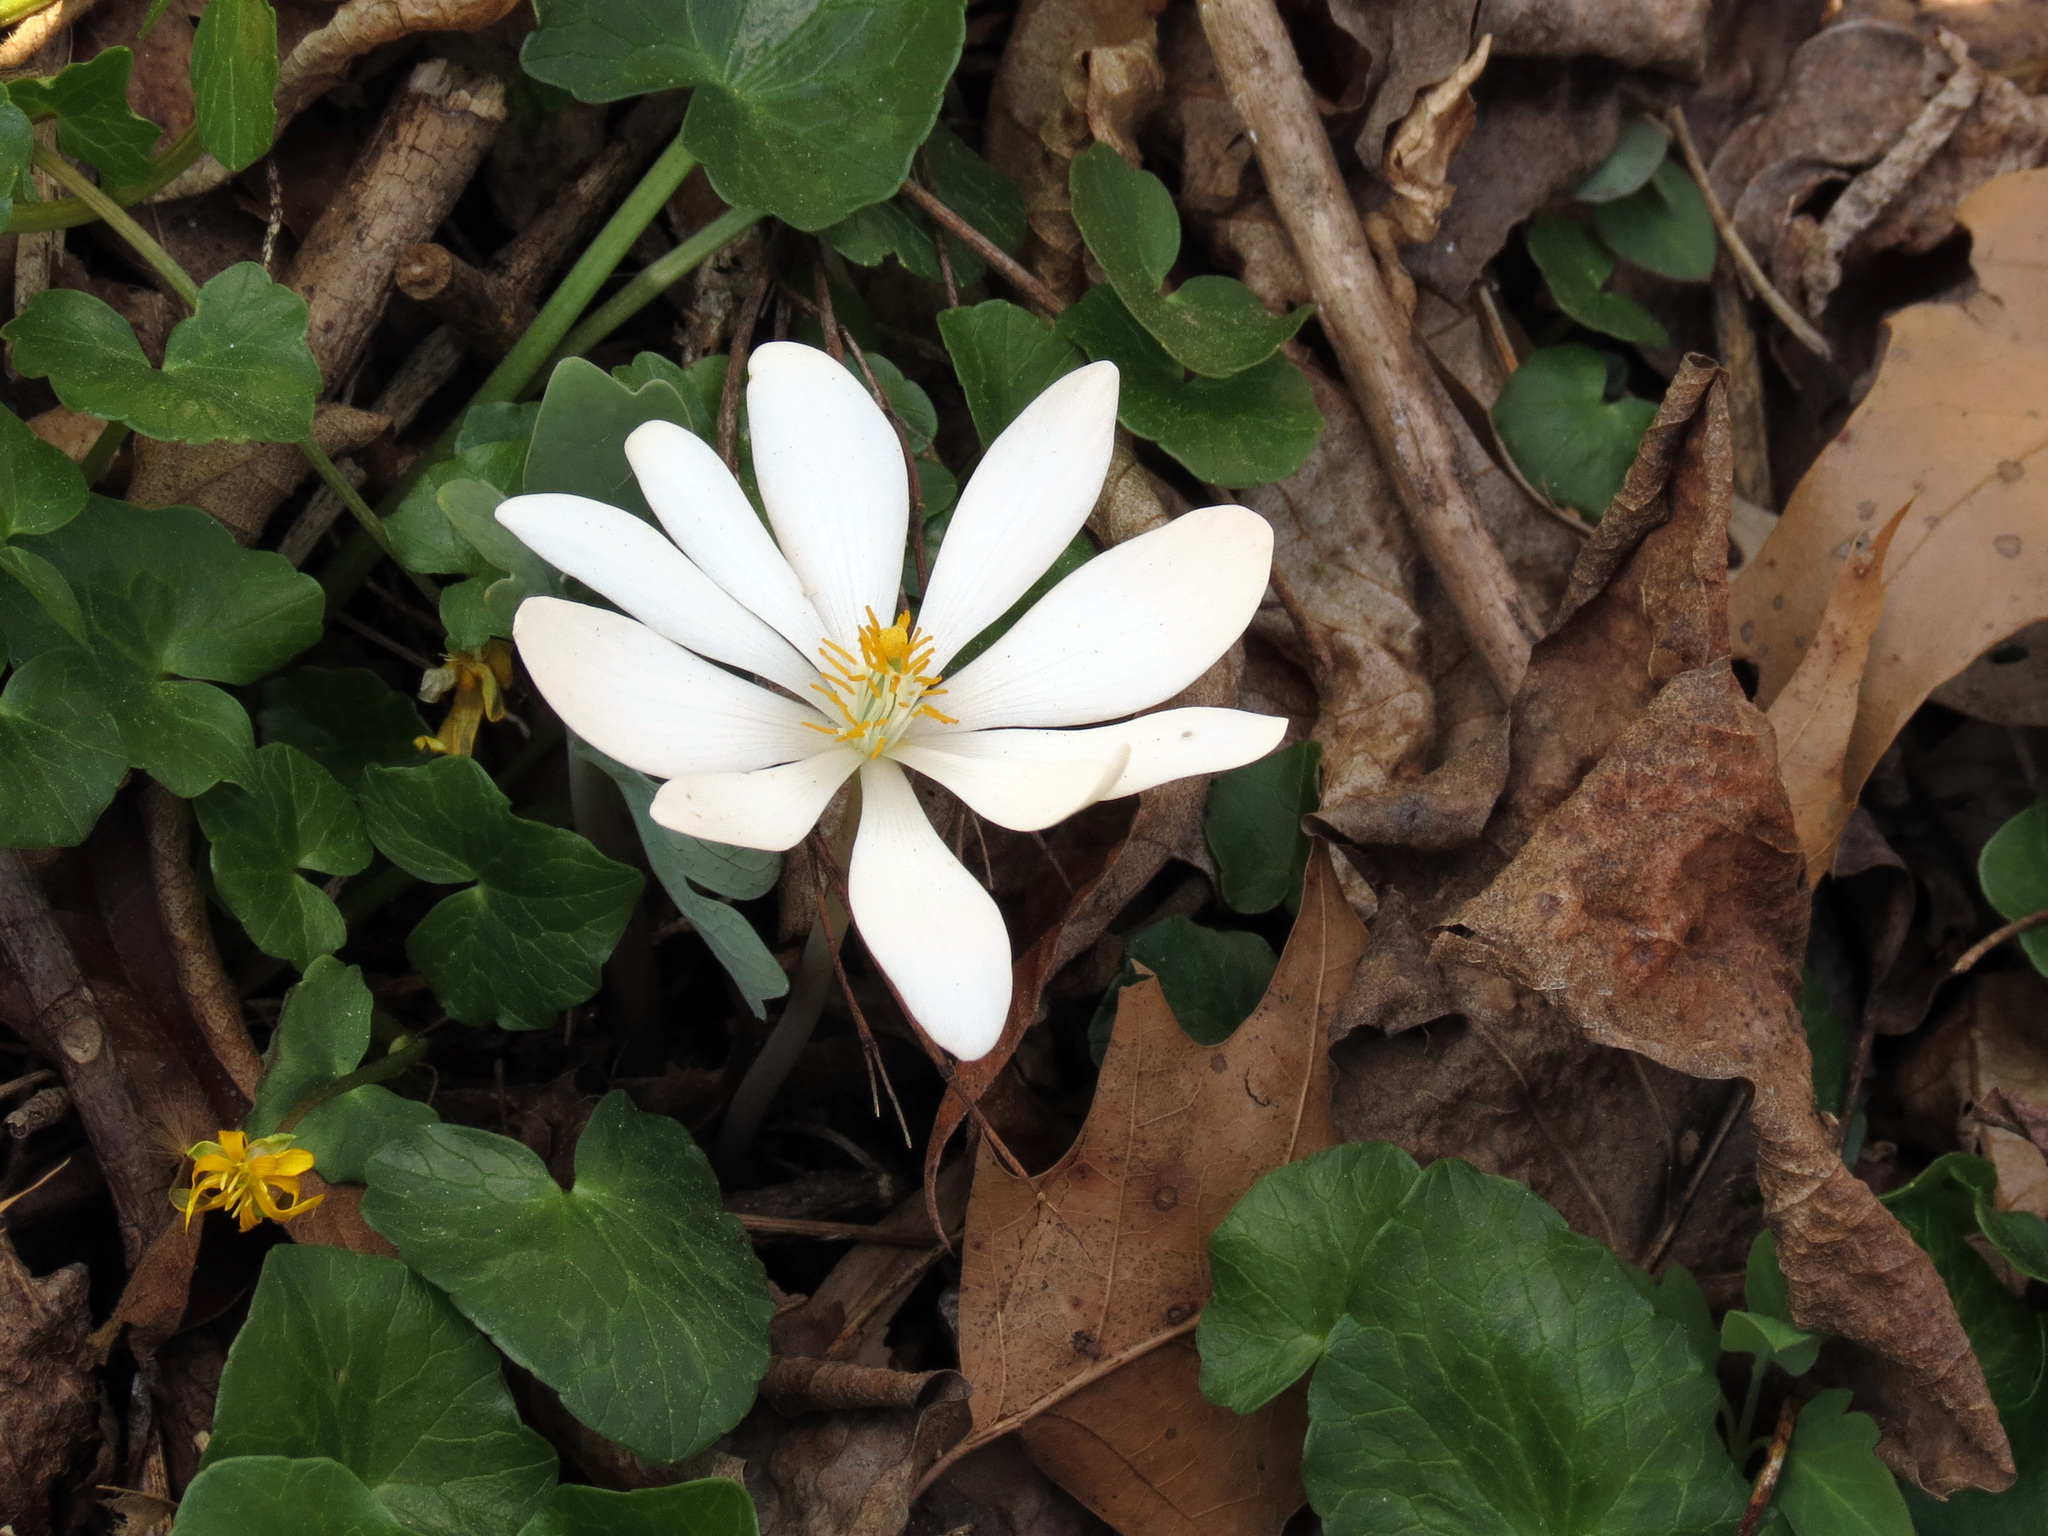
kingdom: Plantae
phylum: Tracheophyta
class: Magnoliopsida
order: Ranunculales
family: Papaveraceae
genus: Sanguinaria
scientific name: Sanguinaria canadensis
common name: Bloodroot
